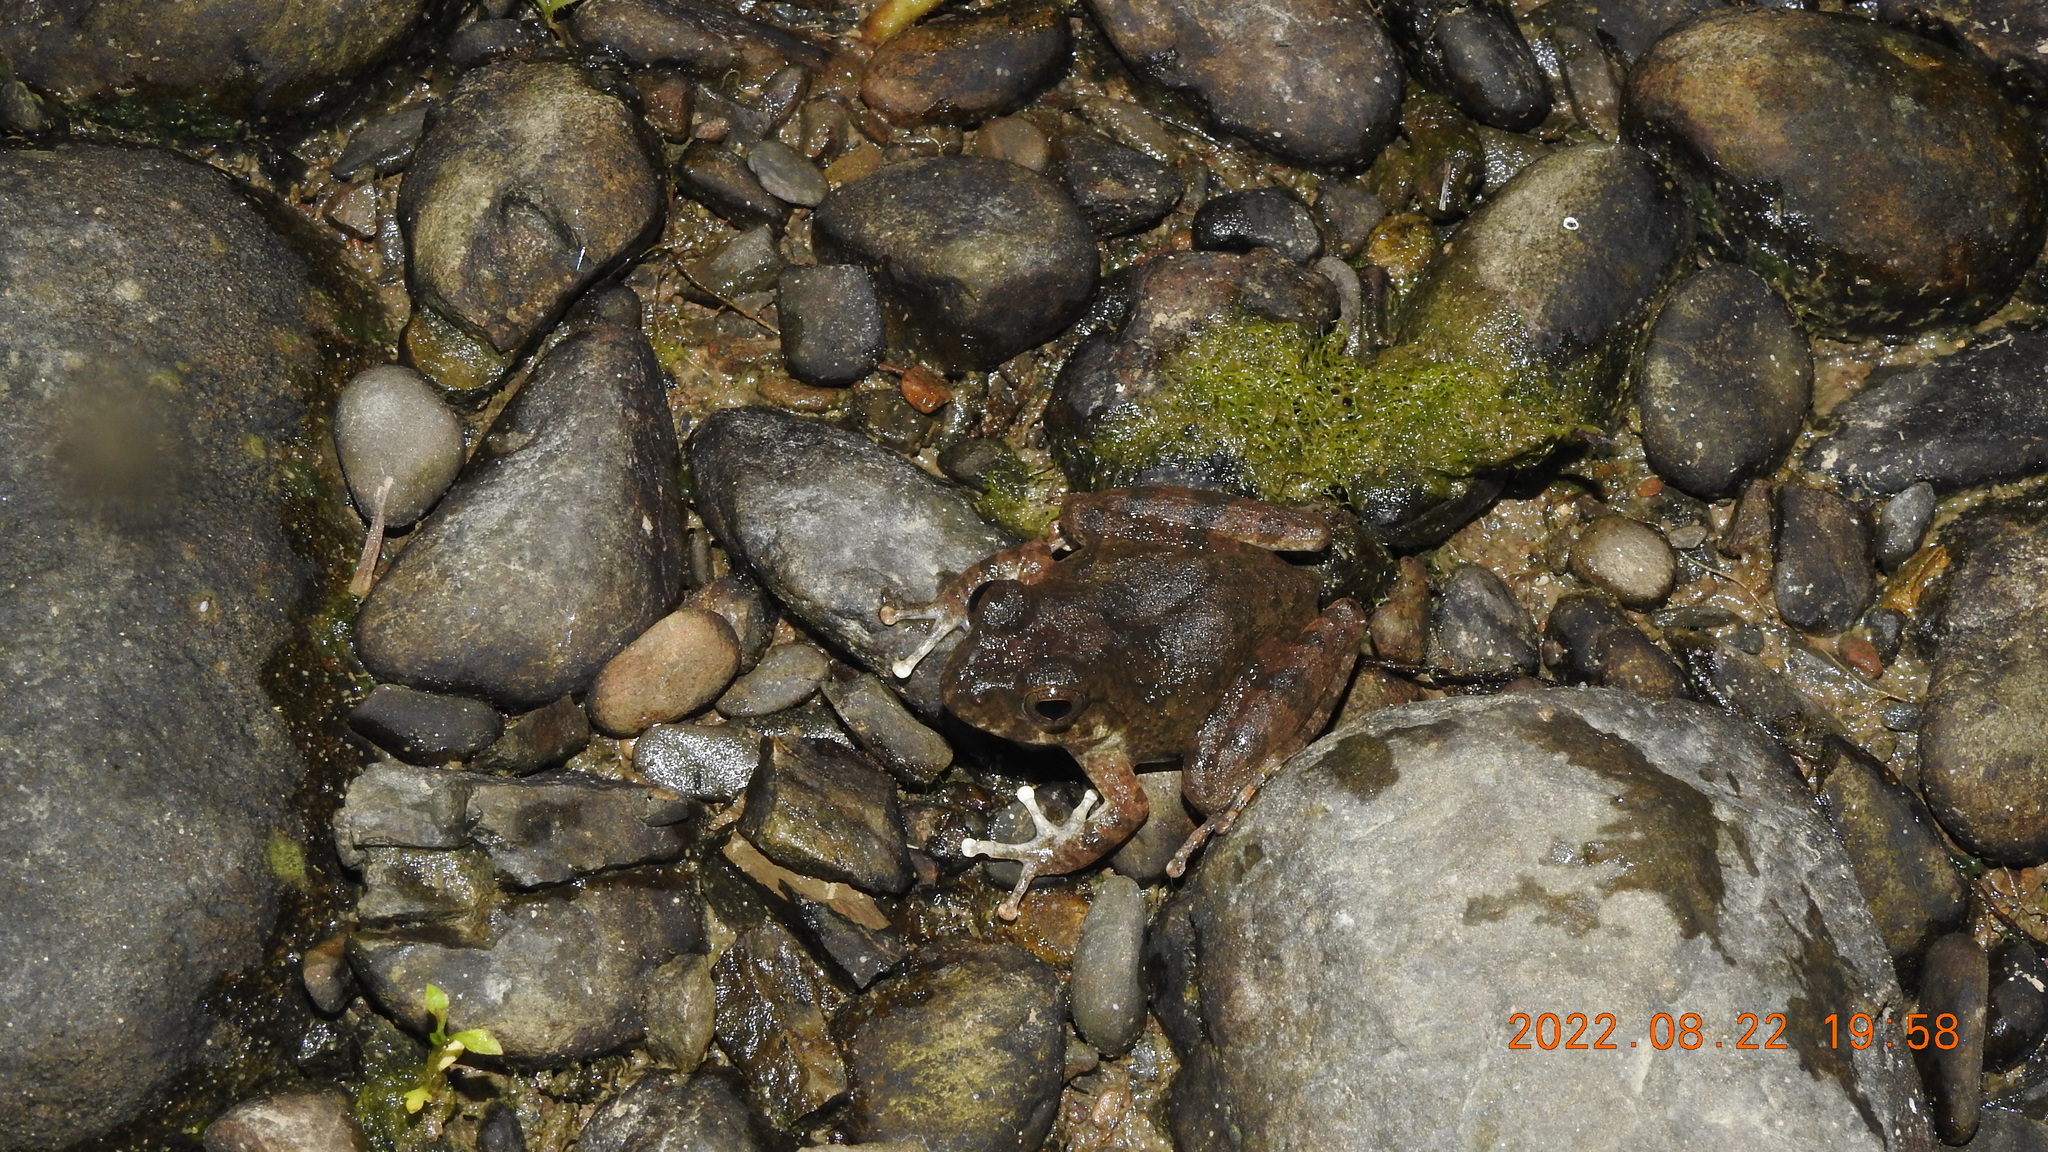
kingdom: Animalia
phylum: Chordata
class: Amphibia
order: Anura
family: Rhacophoridae
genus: Buergeria
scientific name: Buergeria otai
